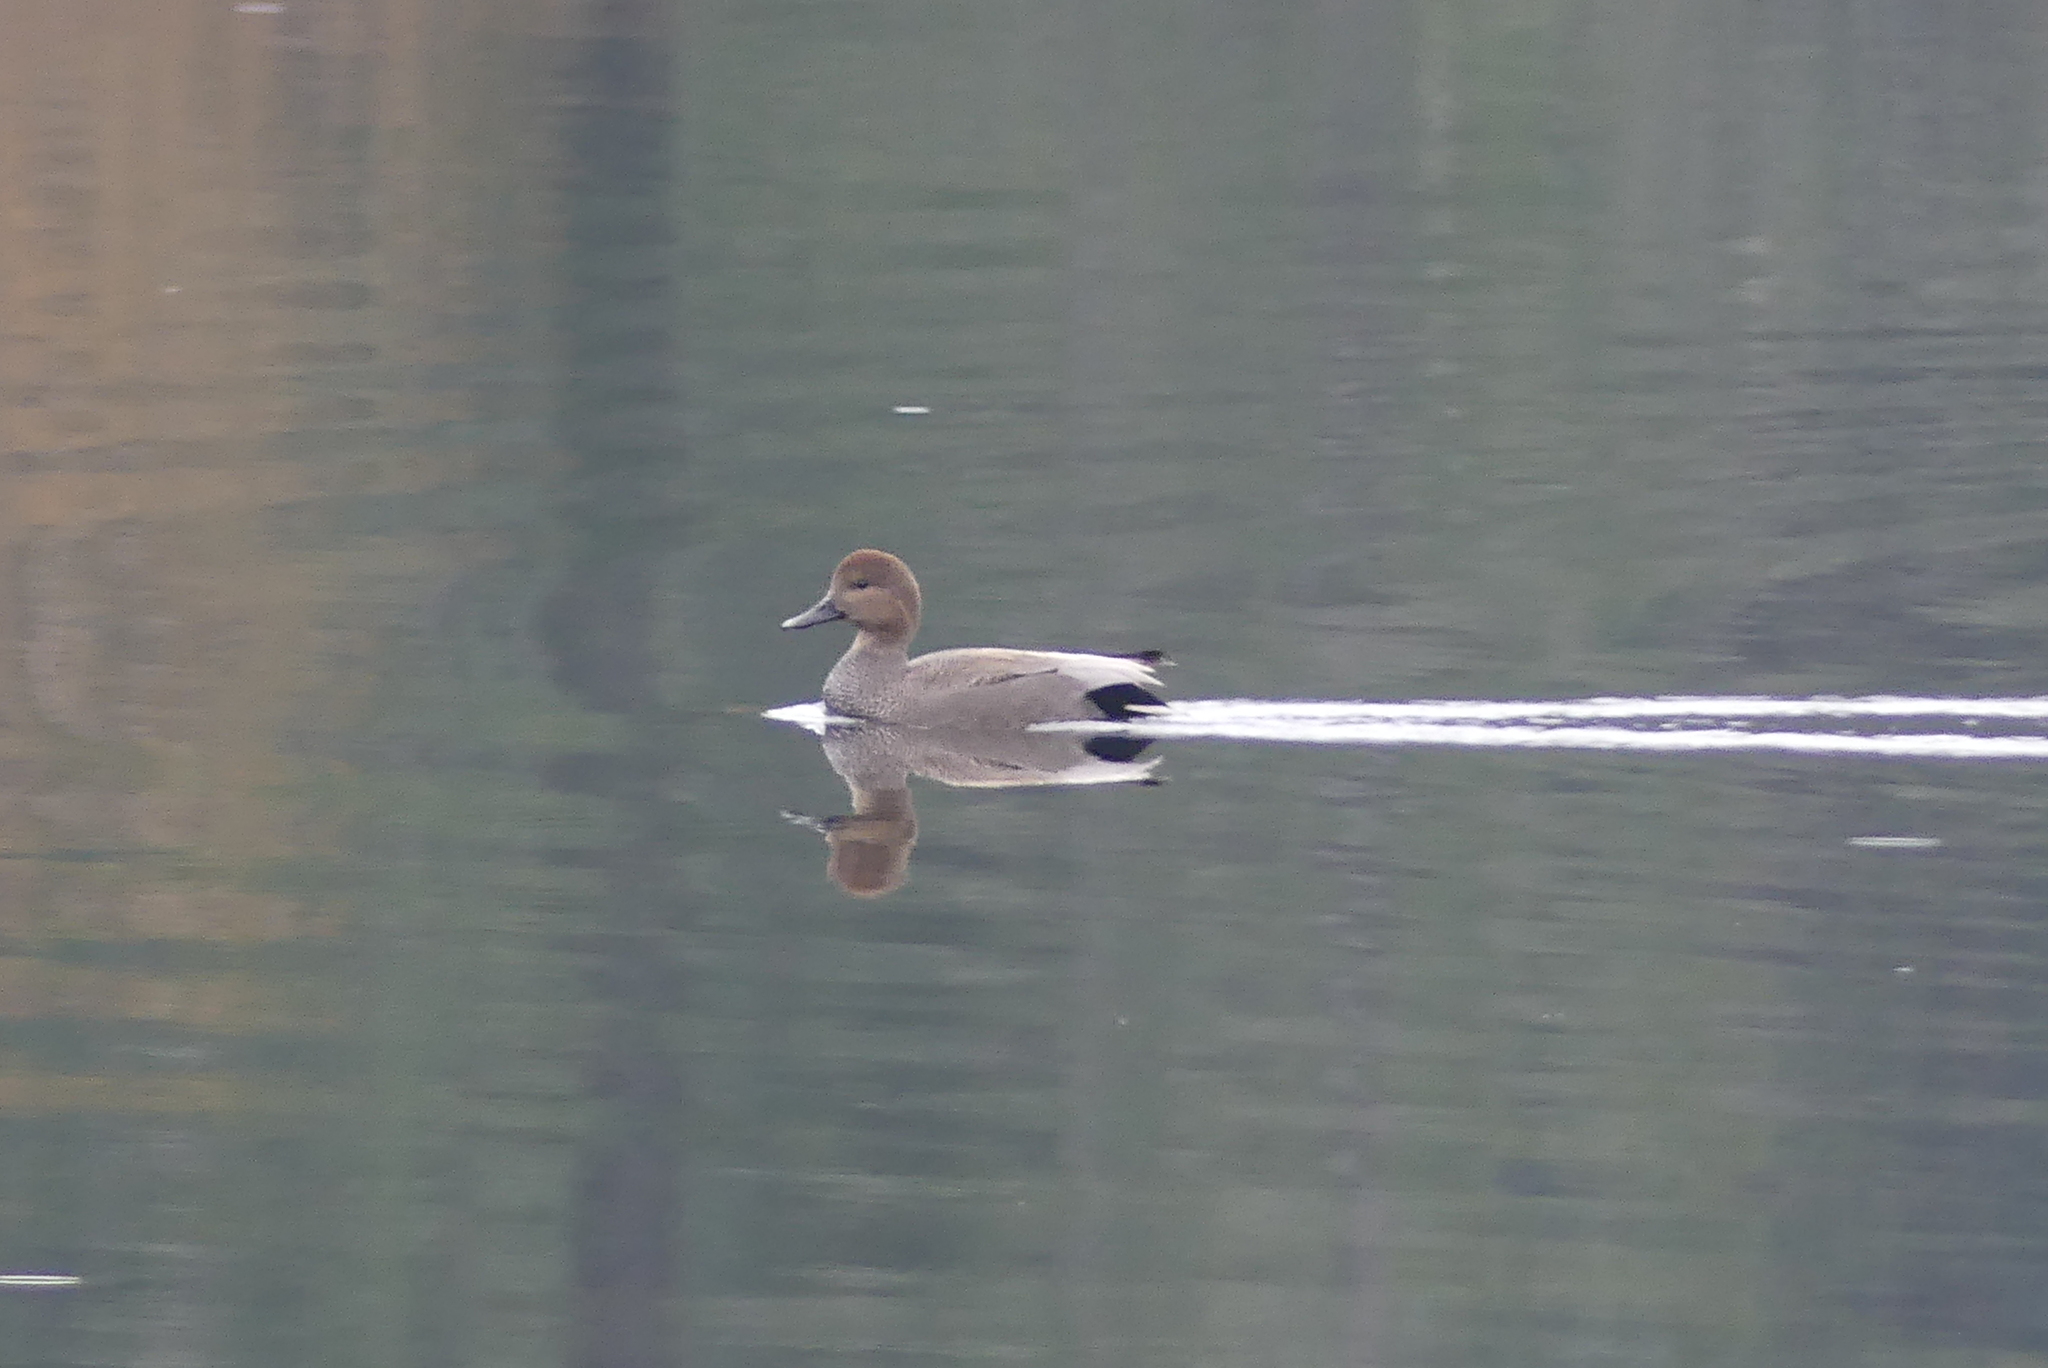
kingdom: Animalia
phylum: Chordata
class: Aves
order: Anseriformes
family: Anatidae
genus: Mareca
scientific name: Mareca strepera
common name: Gadwall
